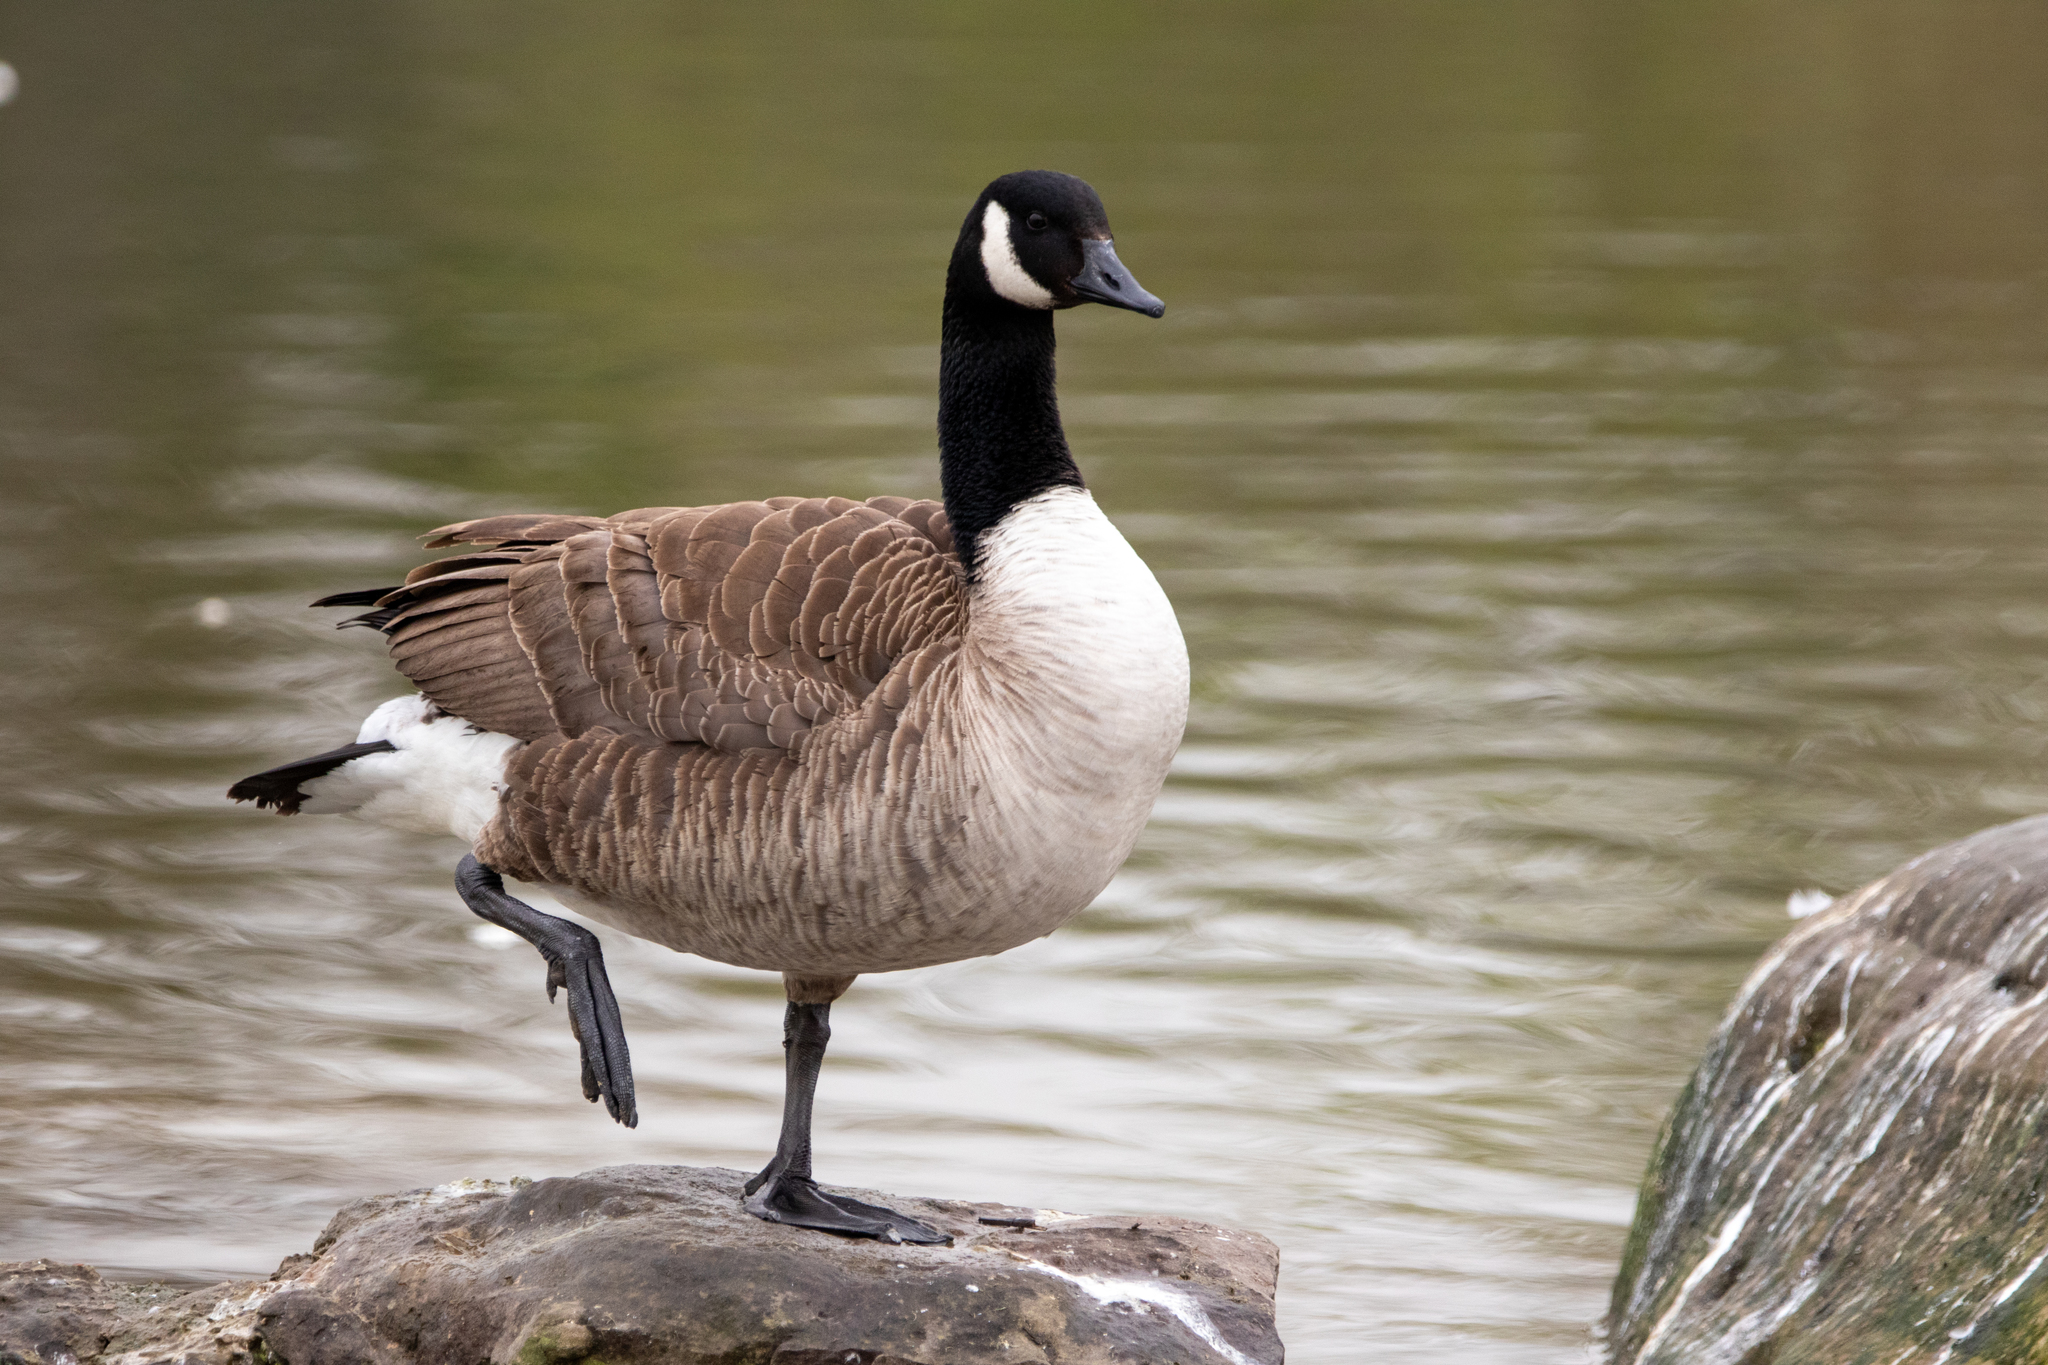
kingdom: Animalia
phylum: Chordata
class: Aves
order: Anseriformes
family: Anatidae
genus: Branta
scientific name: Branta canadensis
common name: Canada goose
